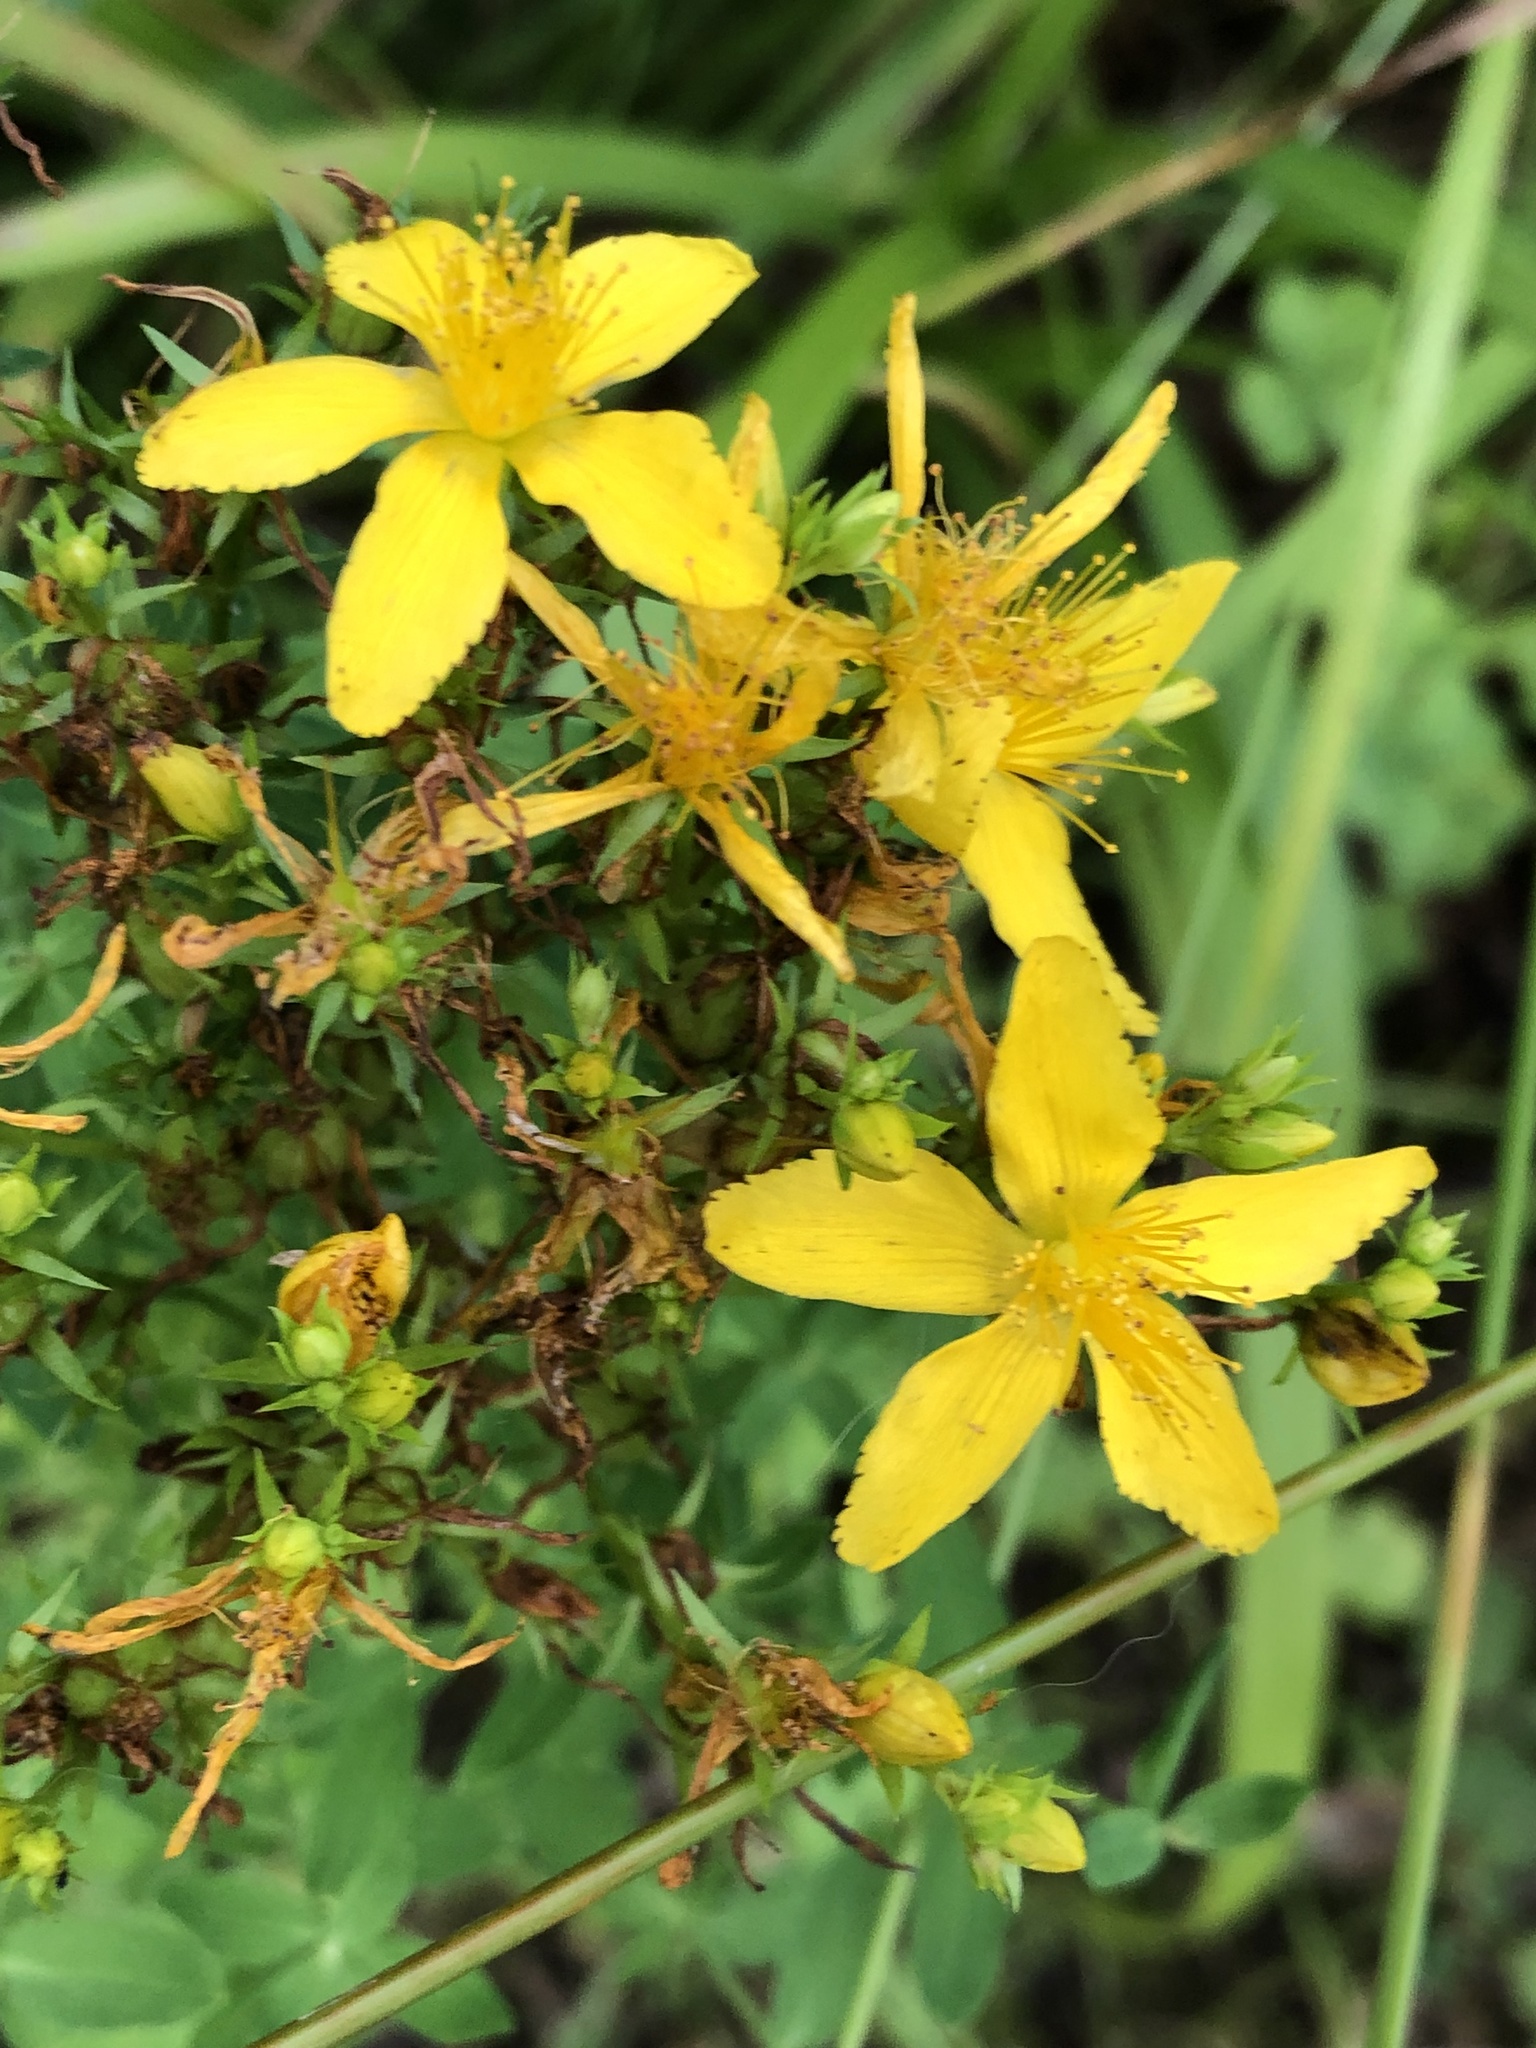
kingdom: Plantae
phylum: Tracheophyta
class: Magnoliopsida
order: Malpighiales
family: Hypericaceae
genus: Hypericum
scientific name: Hypericum perforatum
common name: Common st. johnswort
